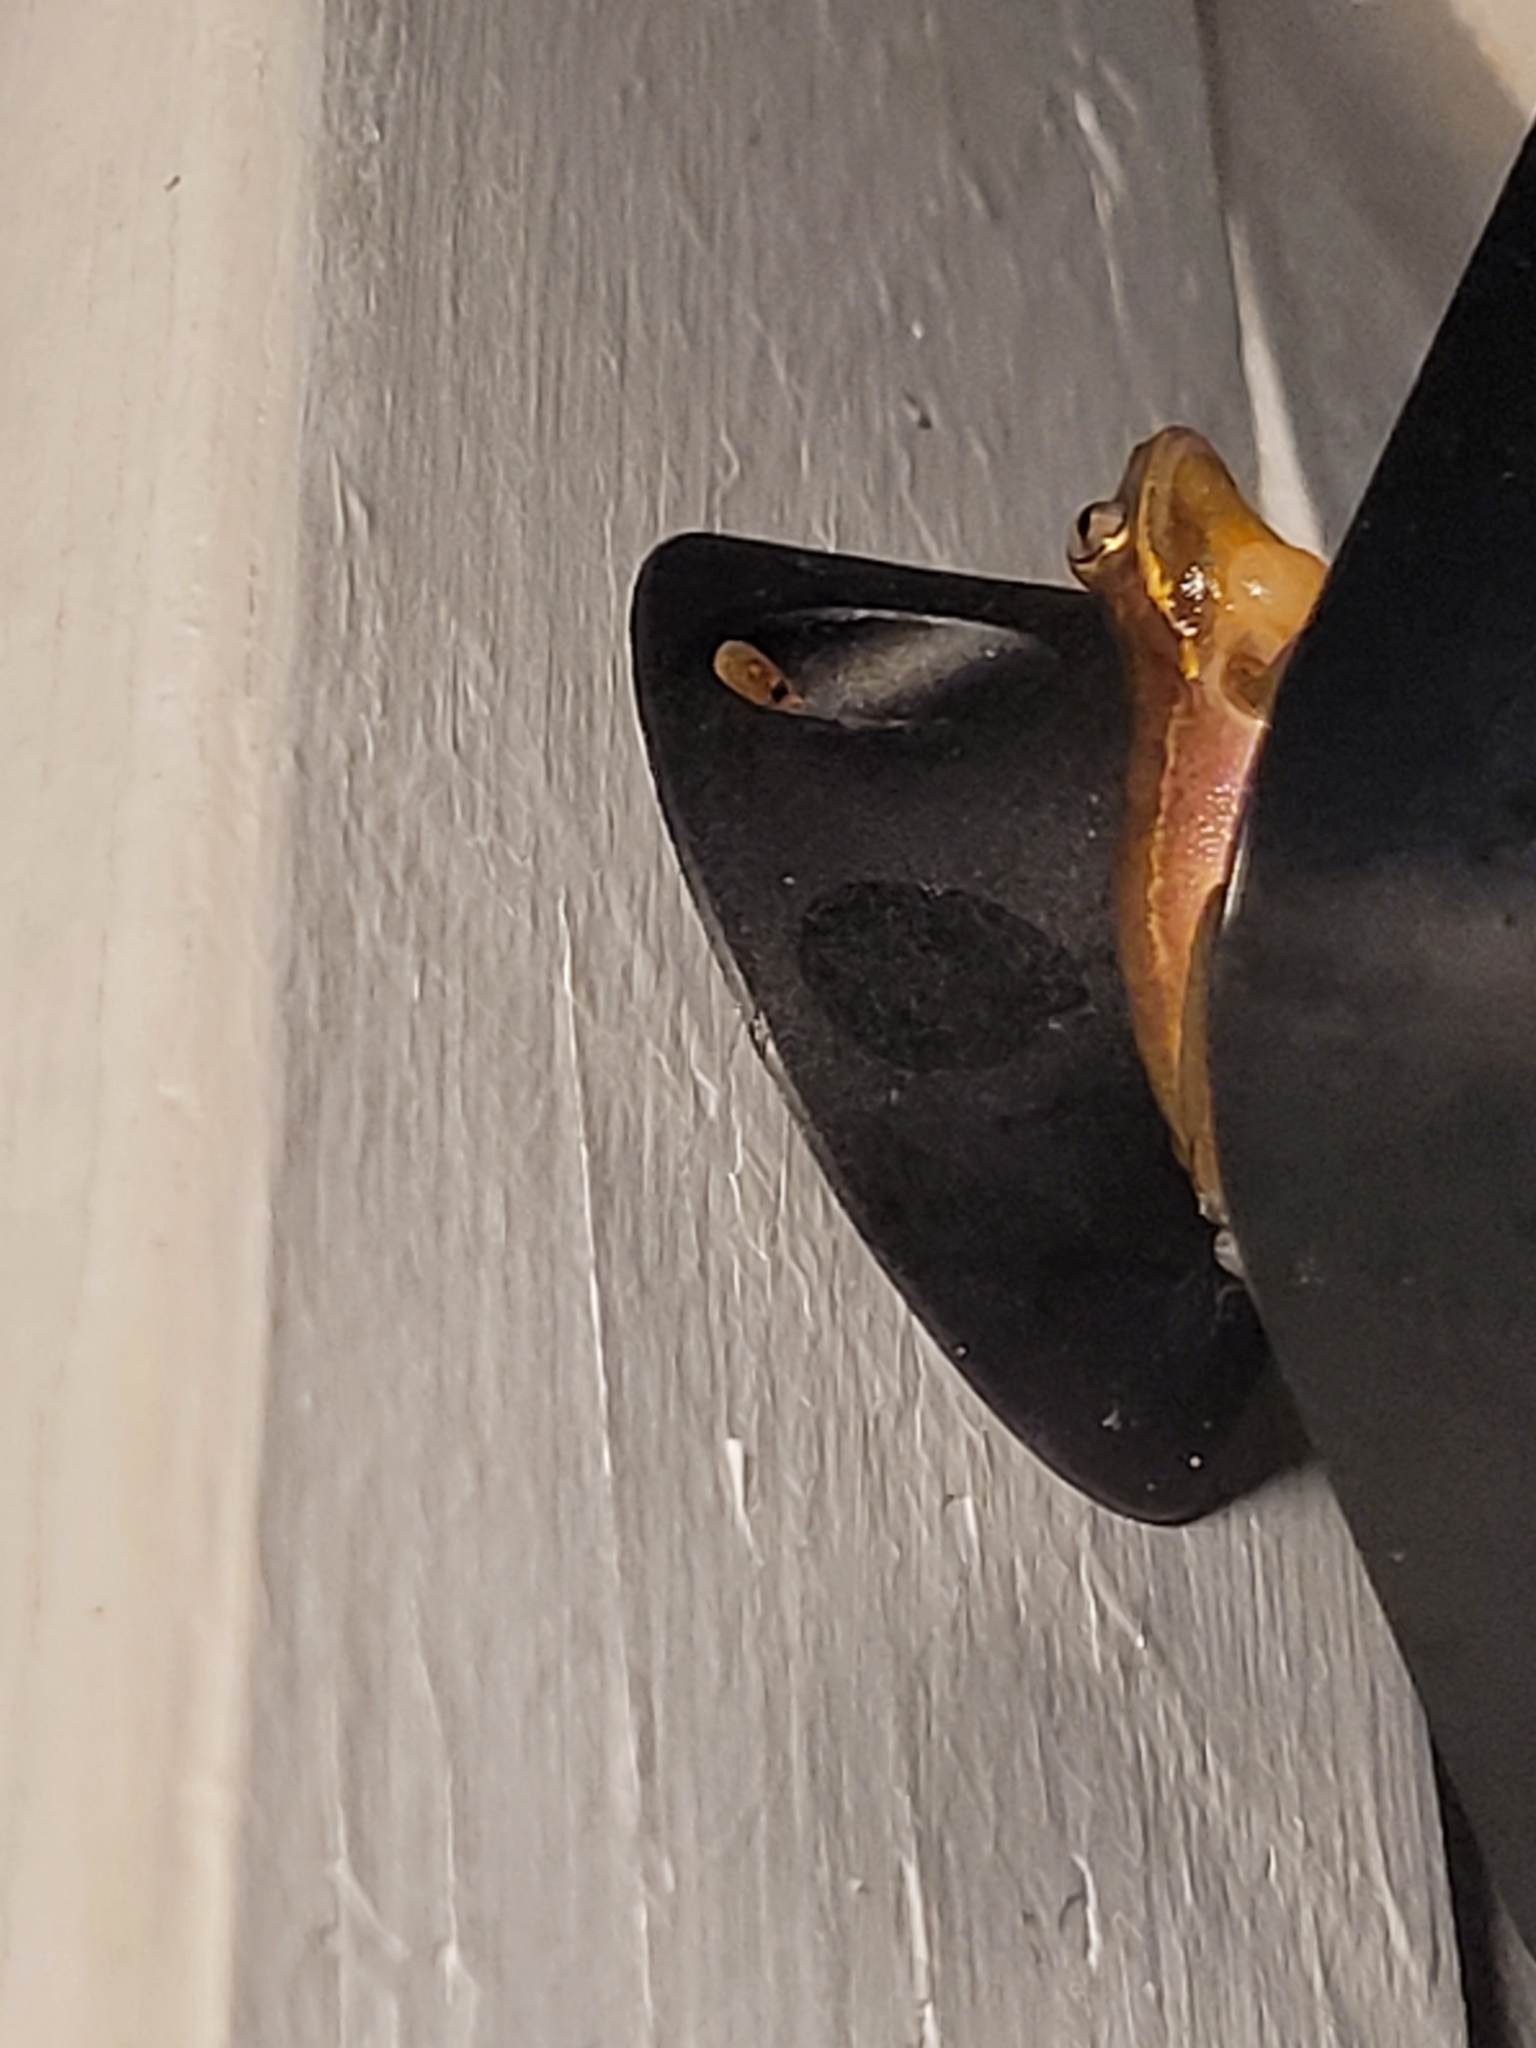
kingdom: Animalia
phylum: Chordata
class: Amphibia
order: Anura
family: Hylidae
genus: Dryophytes
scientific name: Dryophytes squirellus
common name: Squirrel treefrog
